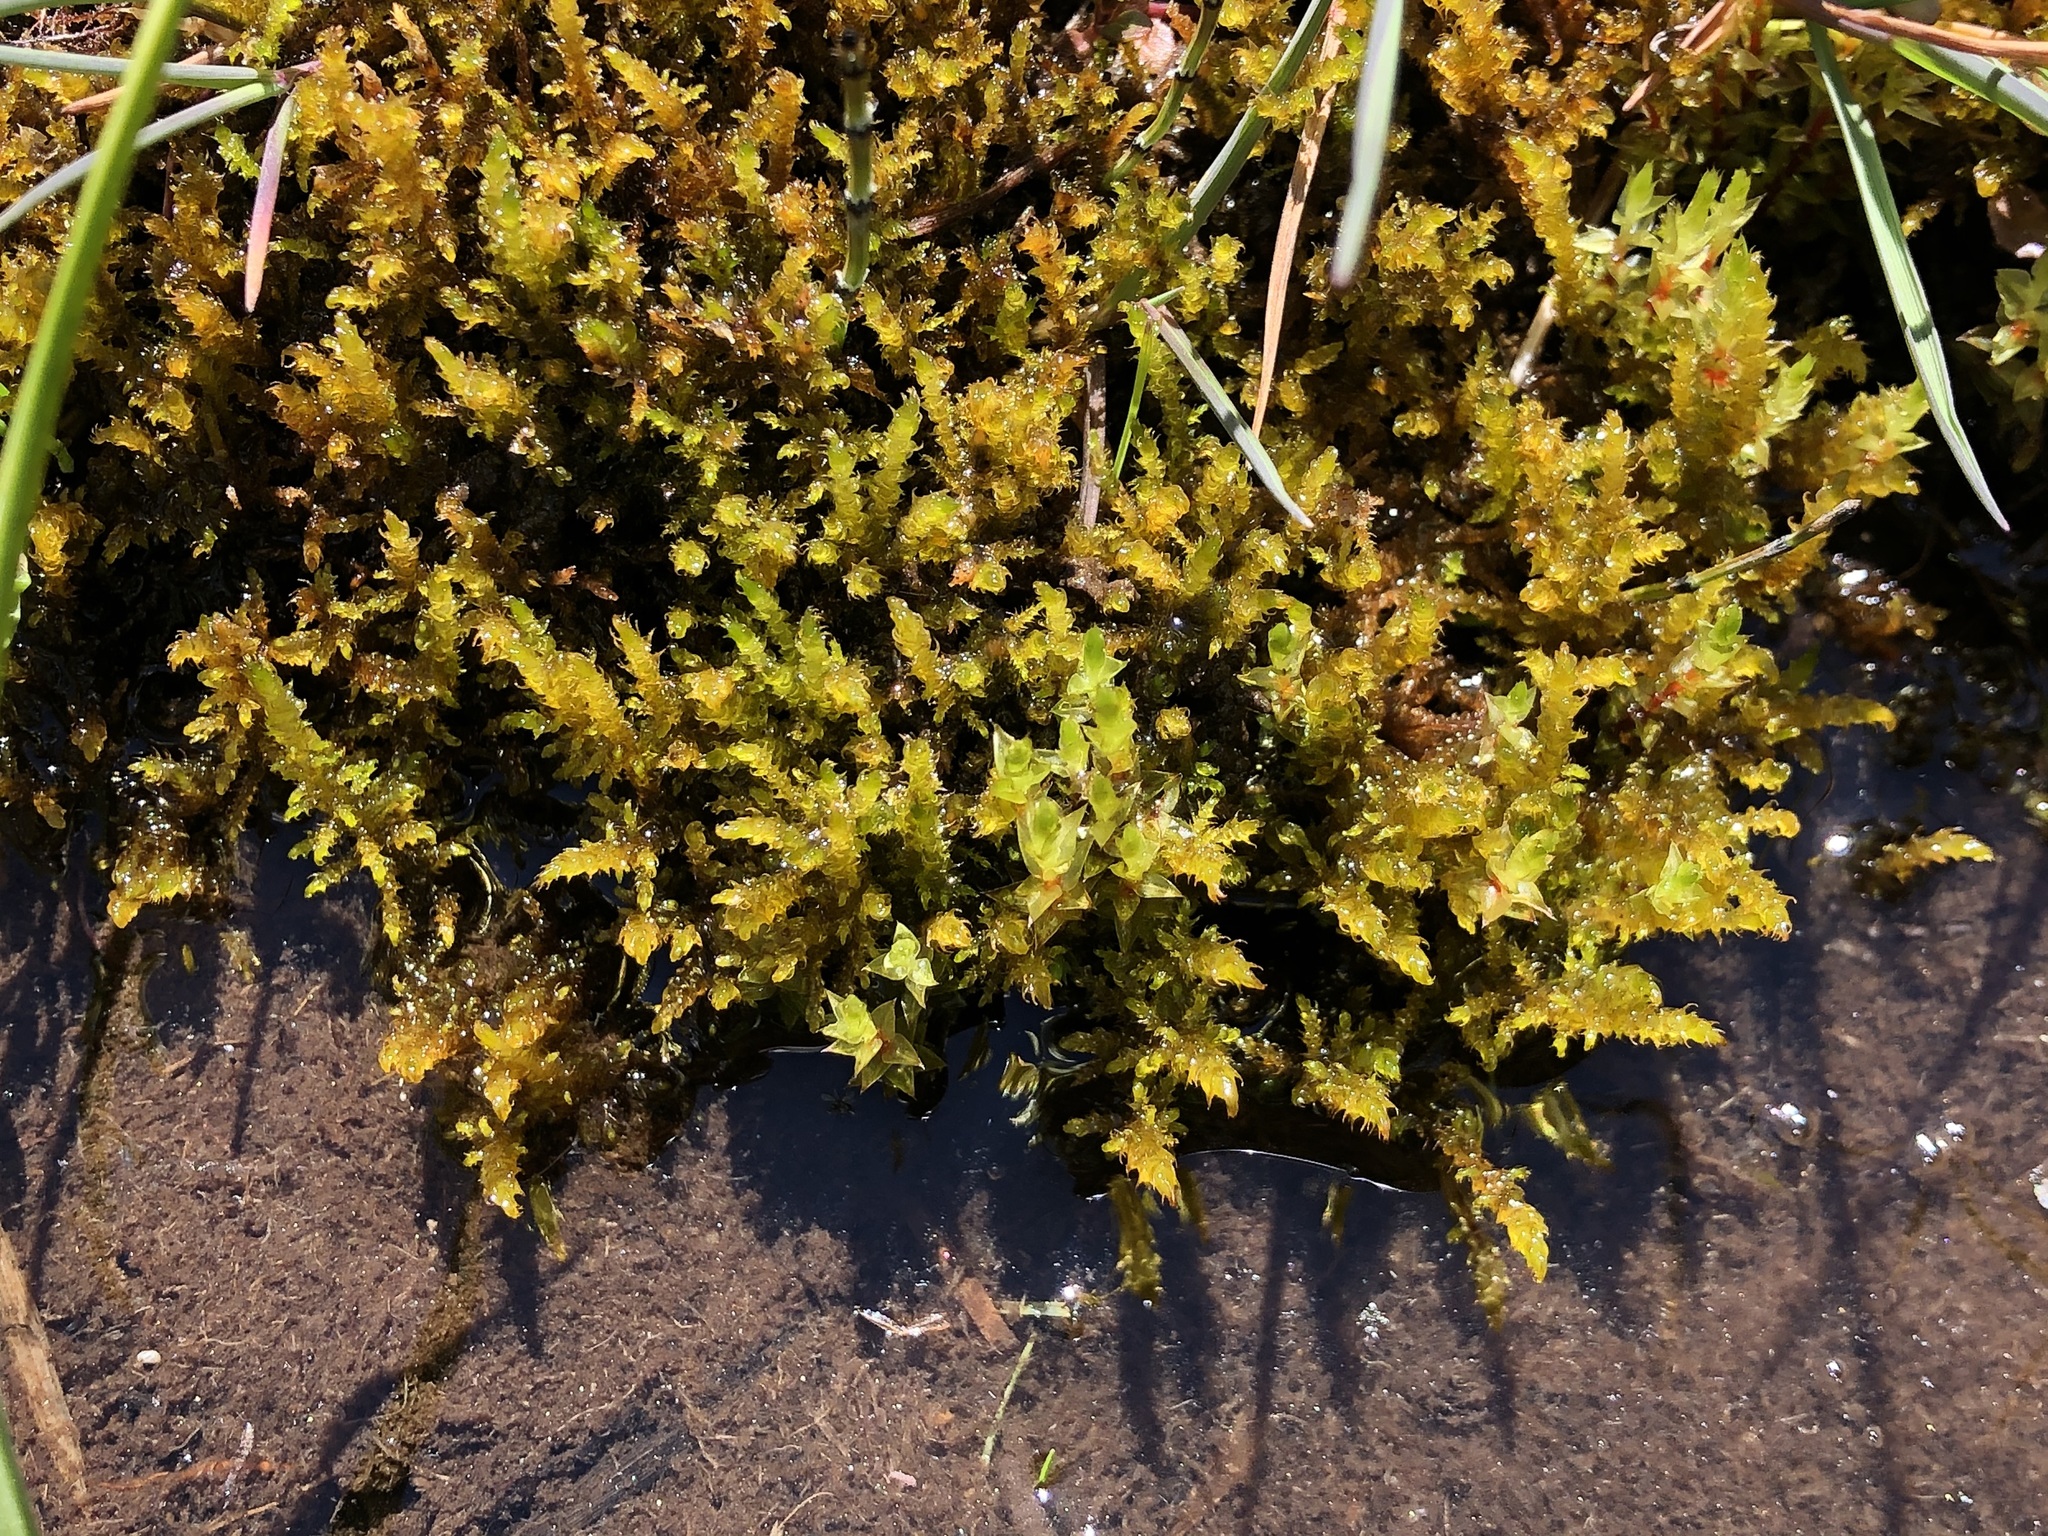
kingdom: Plantae
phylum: Bryophyta
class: Bryopsida
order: Hypnales
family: Amblystegiaceae
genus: Palustriella
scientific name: Palustriella commutata
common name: Curled hook-moss
